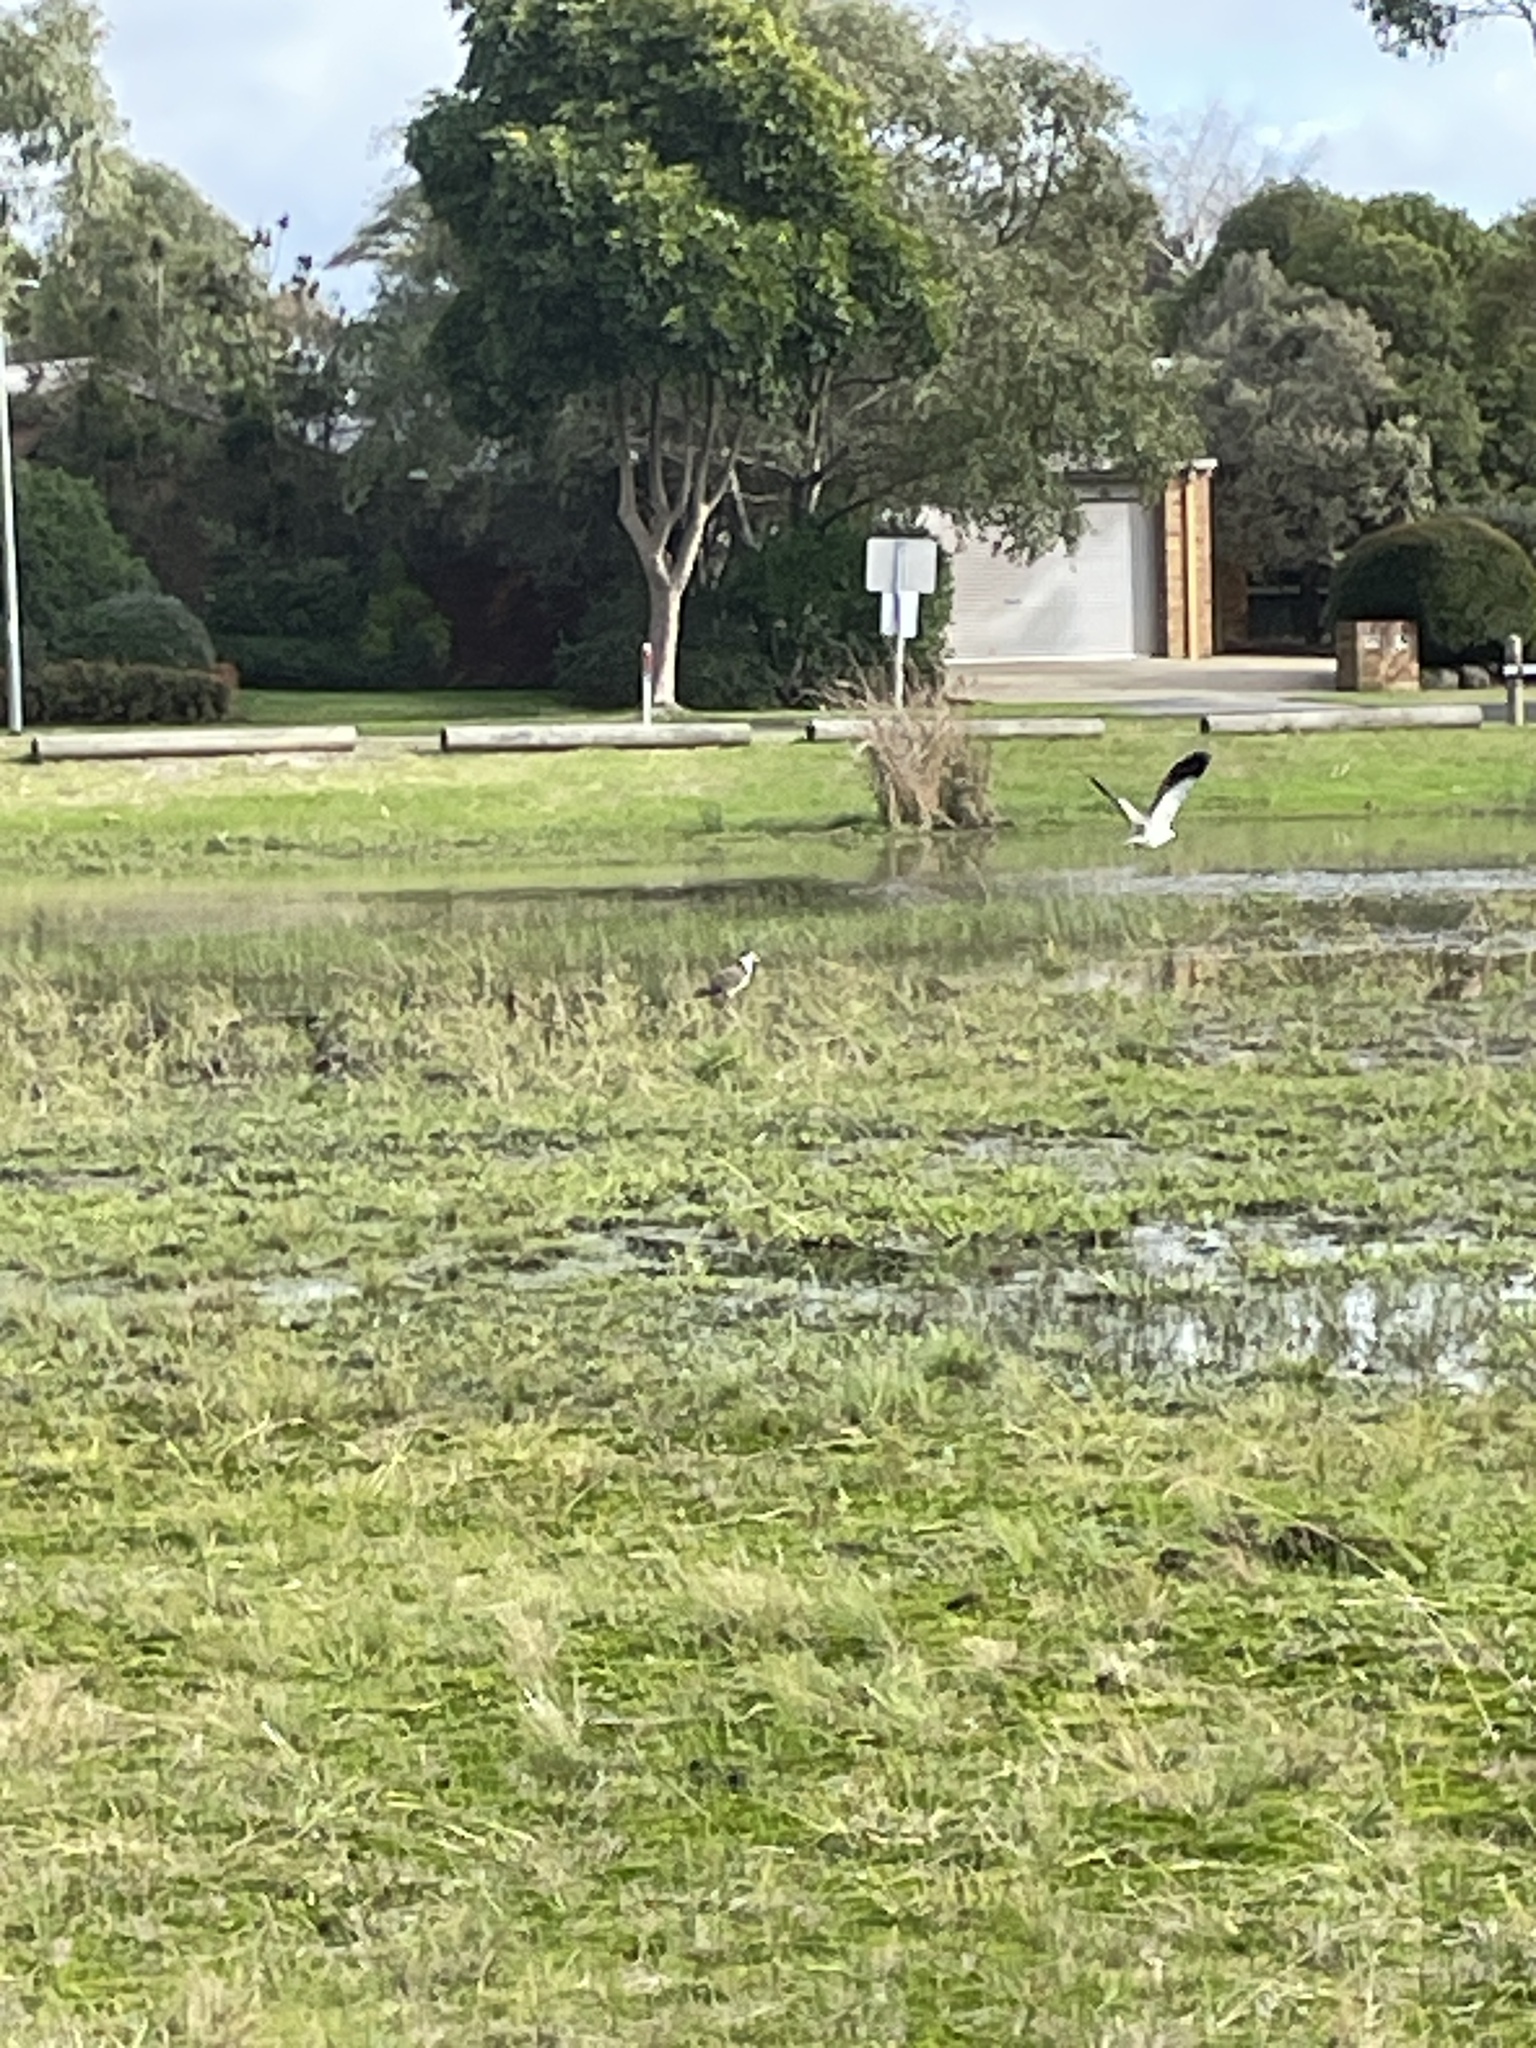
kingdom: Animalia
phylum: Chordata
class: Aves
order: Charadriiformes
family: Charadriidae
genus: Vanellus
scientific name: Vanellus miles
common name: Masked lapwing
